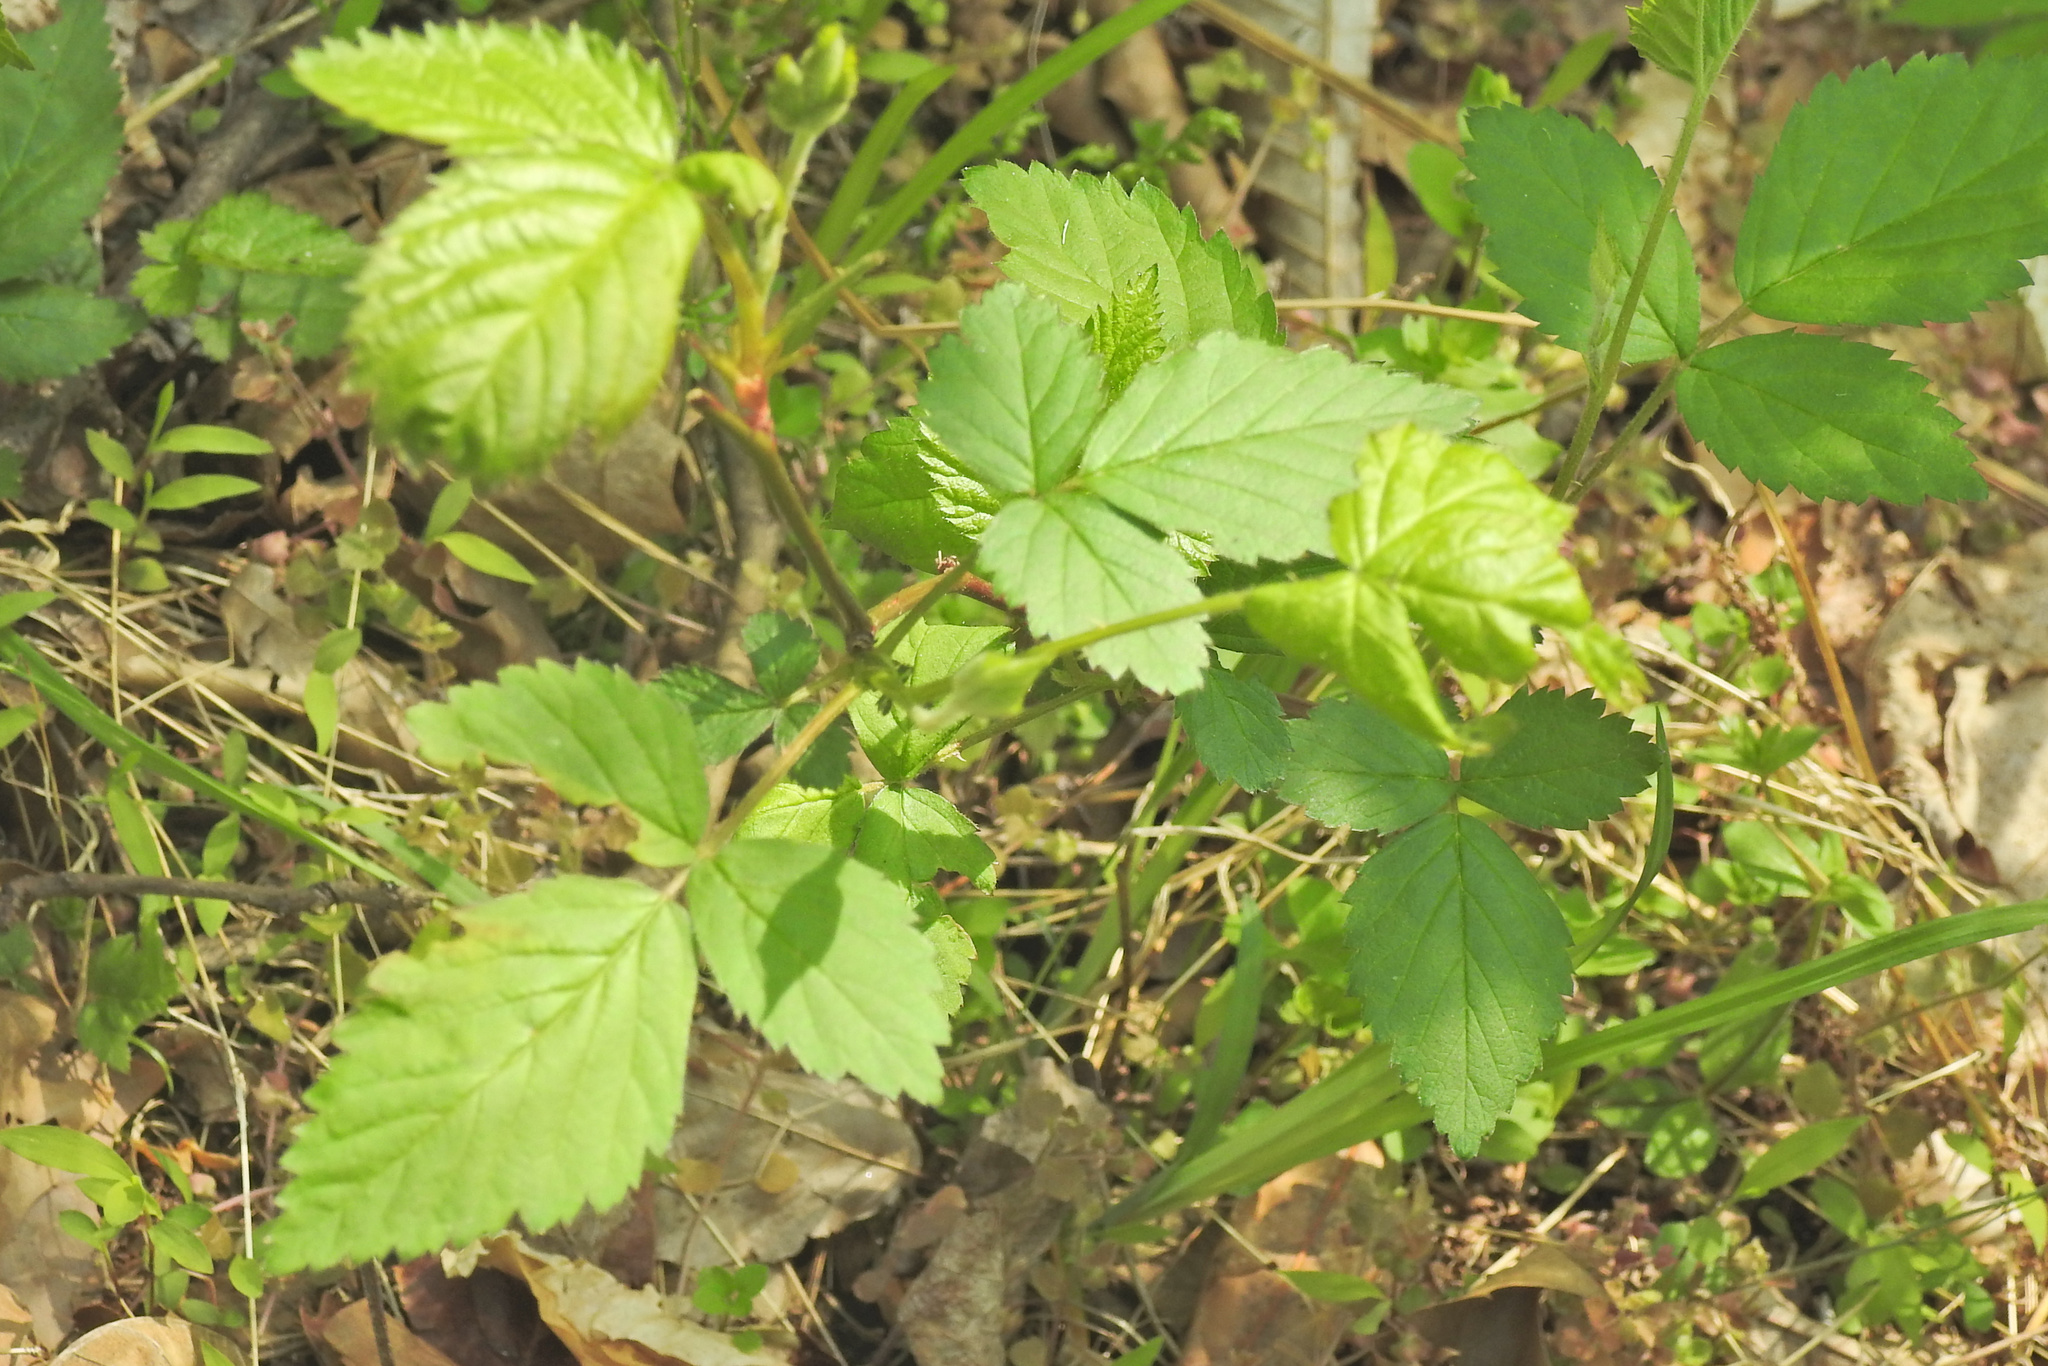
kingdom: Plantae
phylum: Tracheophyta
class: Magnoliopsida
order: Rosales
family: Rosaceae
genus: Rubus
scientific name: Rubus flagellaris
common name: American dewberry
